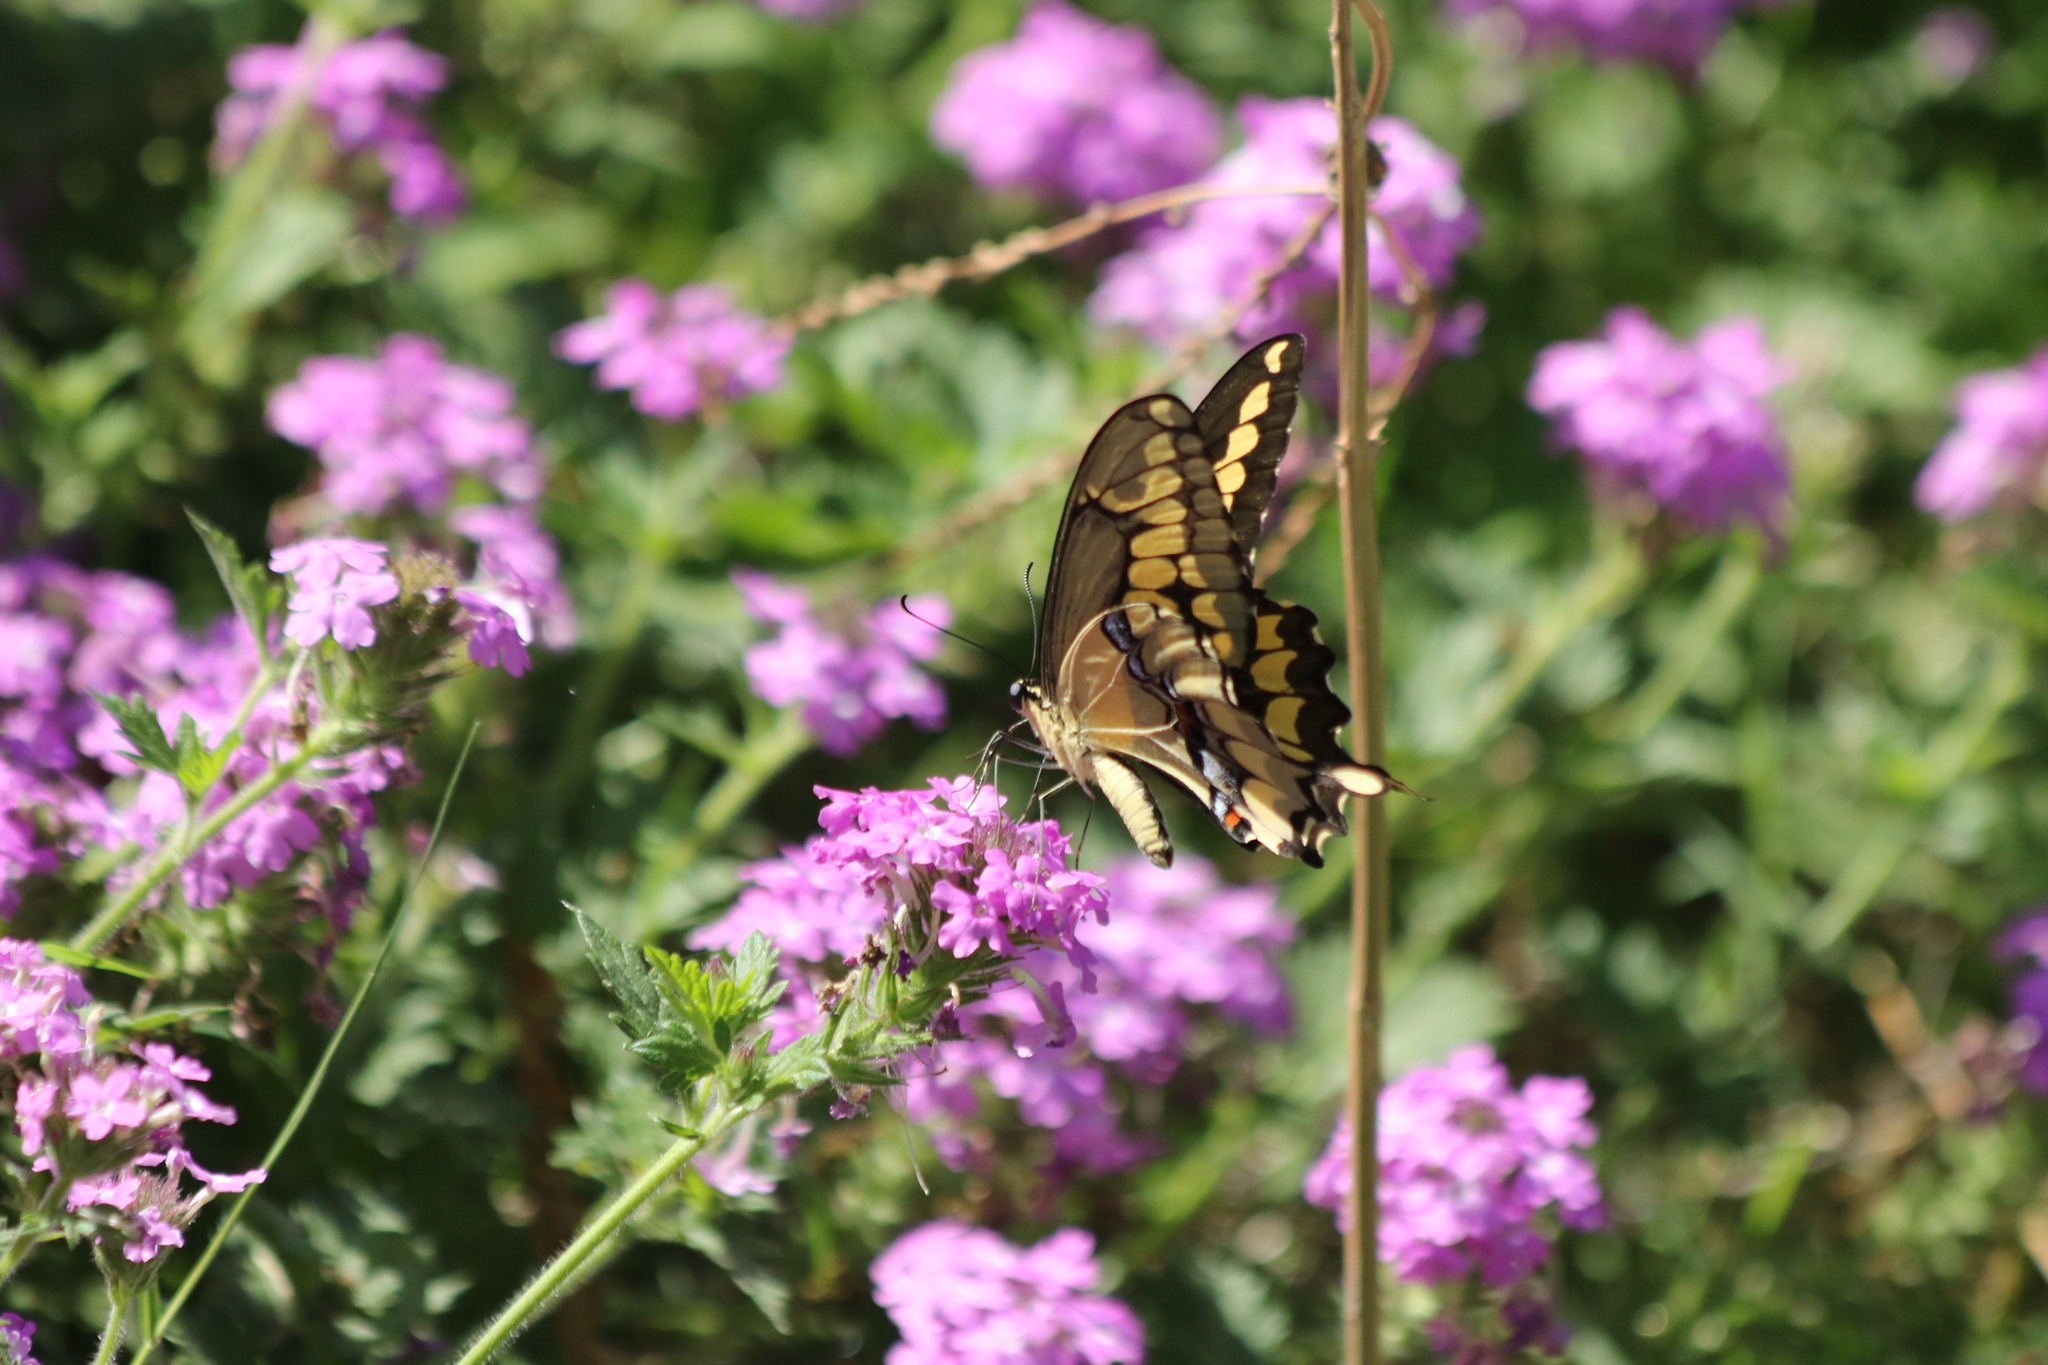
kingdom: Animalia
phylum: Arthropoda
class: Insecta
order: Lepidoptera
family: Papilionidae
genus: Papilio
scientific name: Papilio rumiko
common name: Western giant swallowtail
